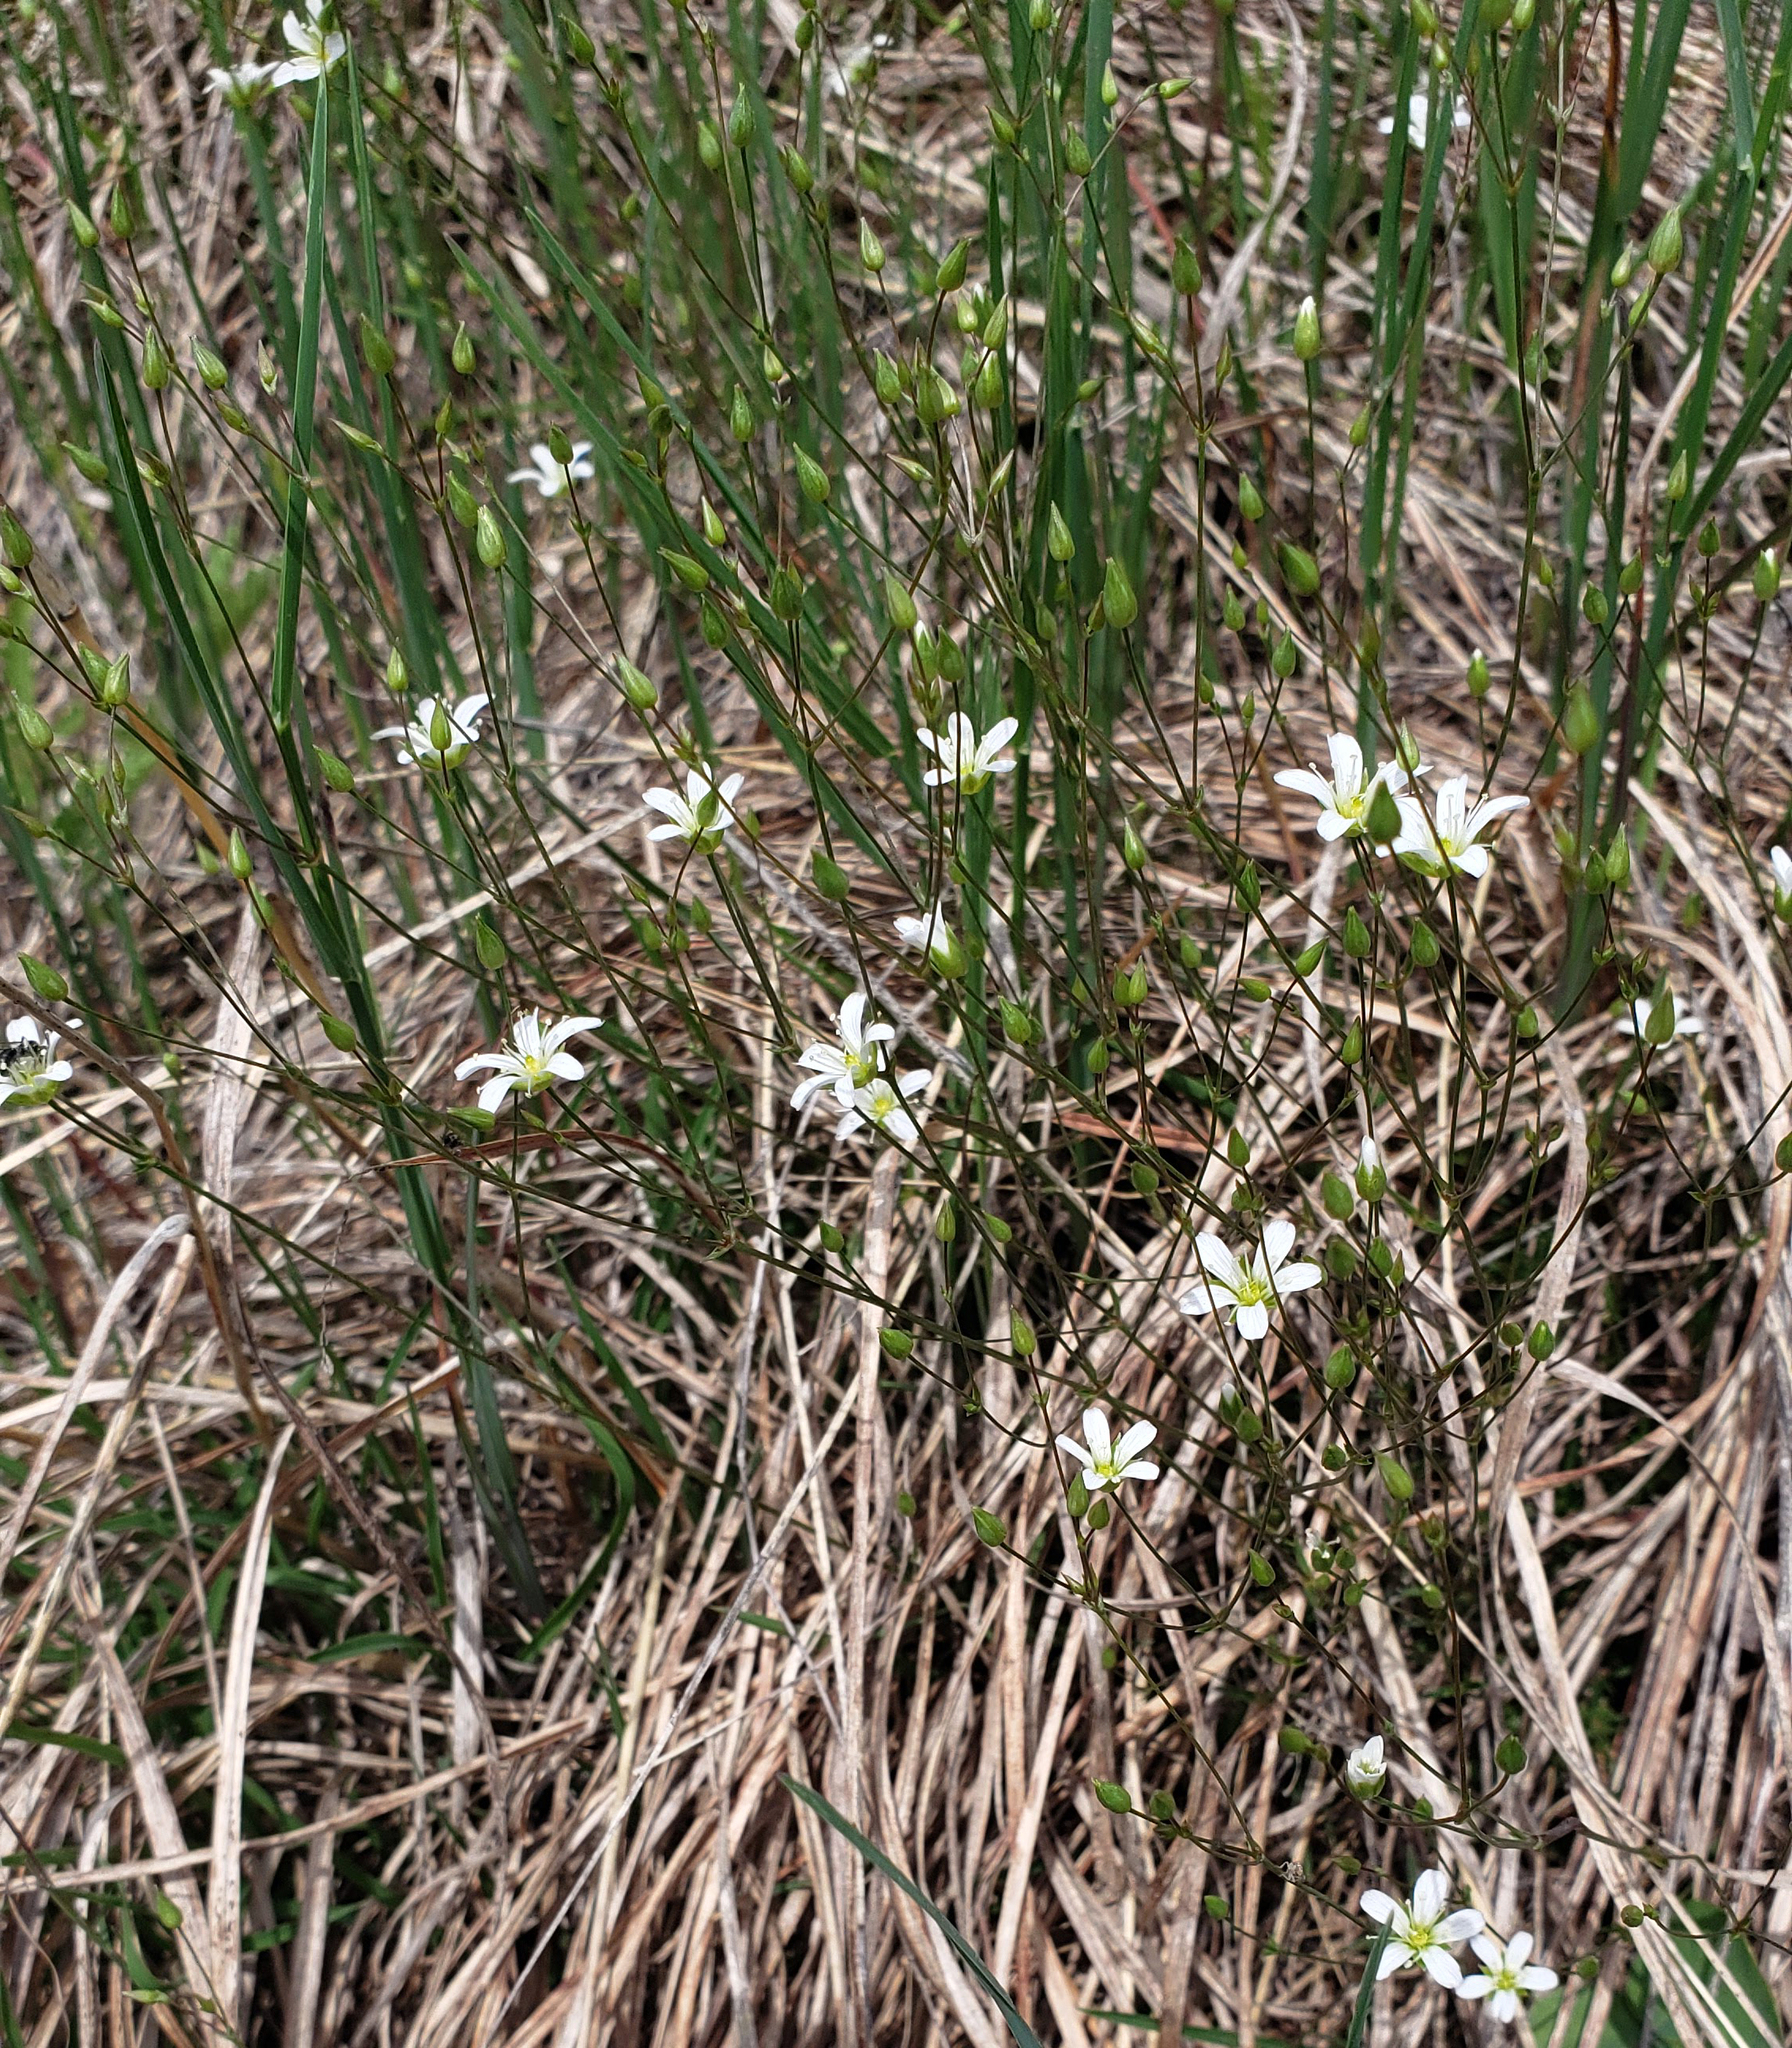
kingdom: Plantae
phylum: Tracheophyta
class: Magnoliopsida
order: Caryophyllales
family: Caryophyllaceae
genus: Sabulina
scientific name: Sabulina michauxii
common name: Michaux's stitchwort
